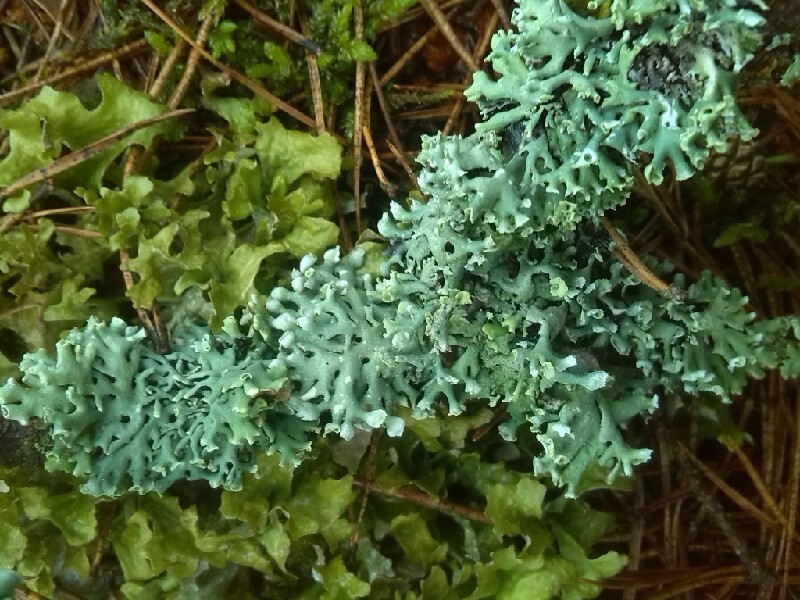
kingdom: Fungi
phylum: Ascomycota
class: Lecanoromycetes
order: Lecanorales
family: Parmeliaceae
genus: Hypogymnia
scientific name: Hypogymnia physodes
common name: Dark crottle
